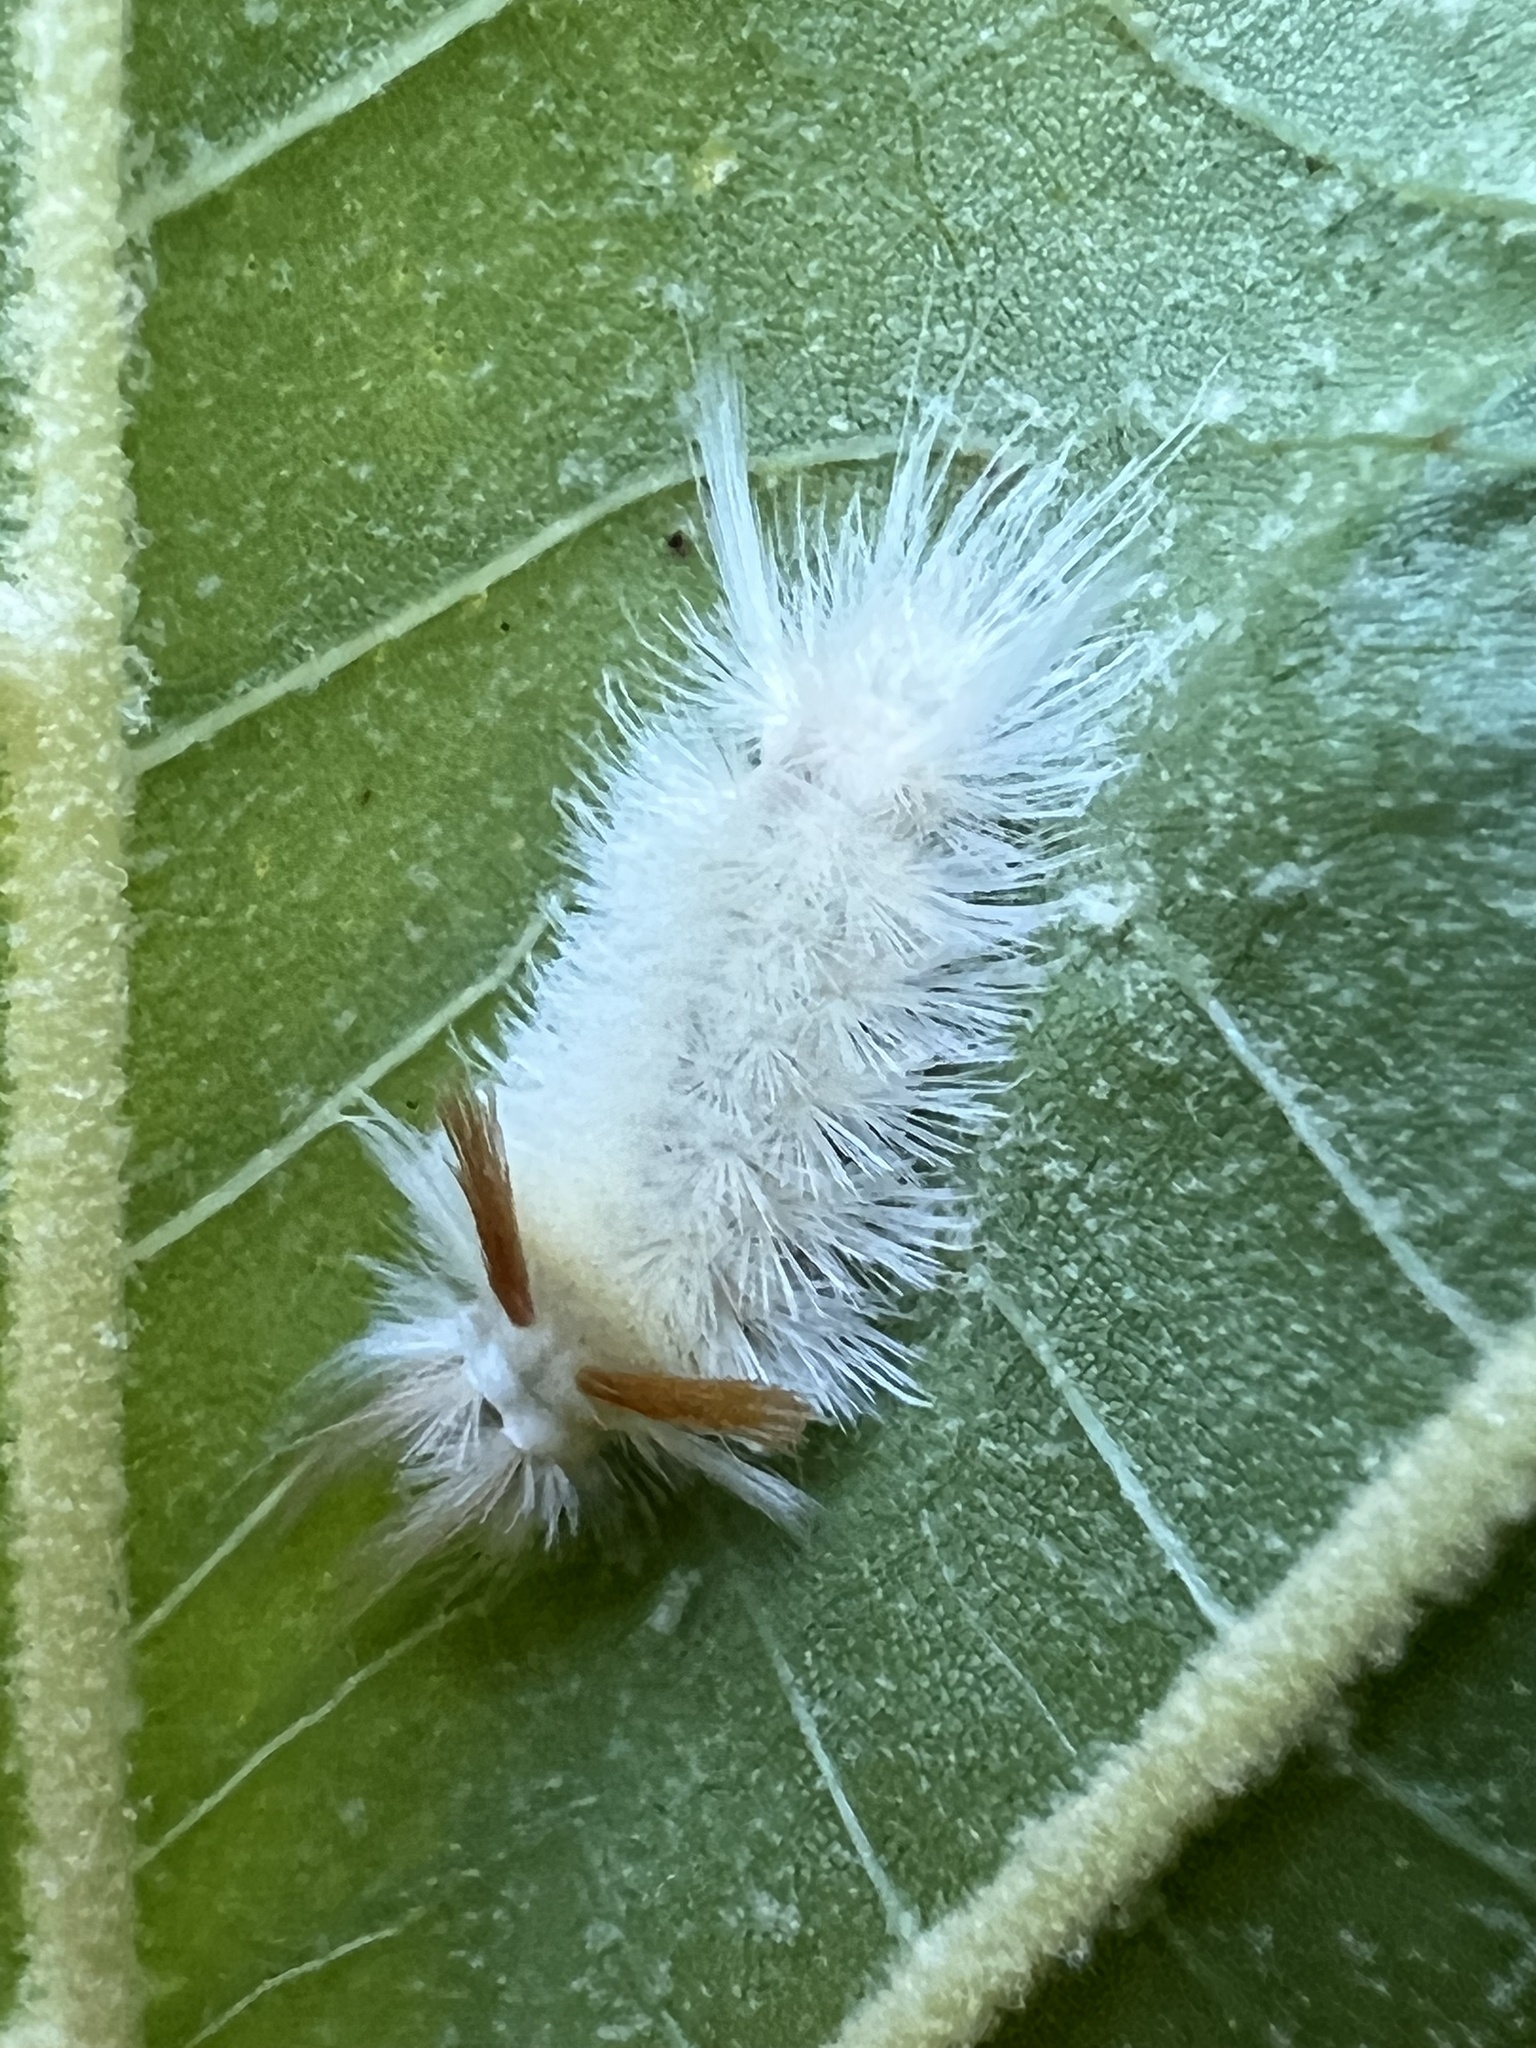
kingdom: Animalia
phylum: Arthropoda
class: Insecta
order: Lepidoptera
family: Erebidae
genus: Halysidota
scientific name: Halysidota harrisii
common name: Sycamore tussock moth
